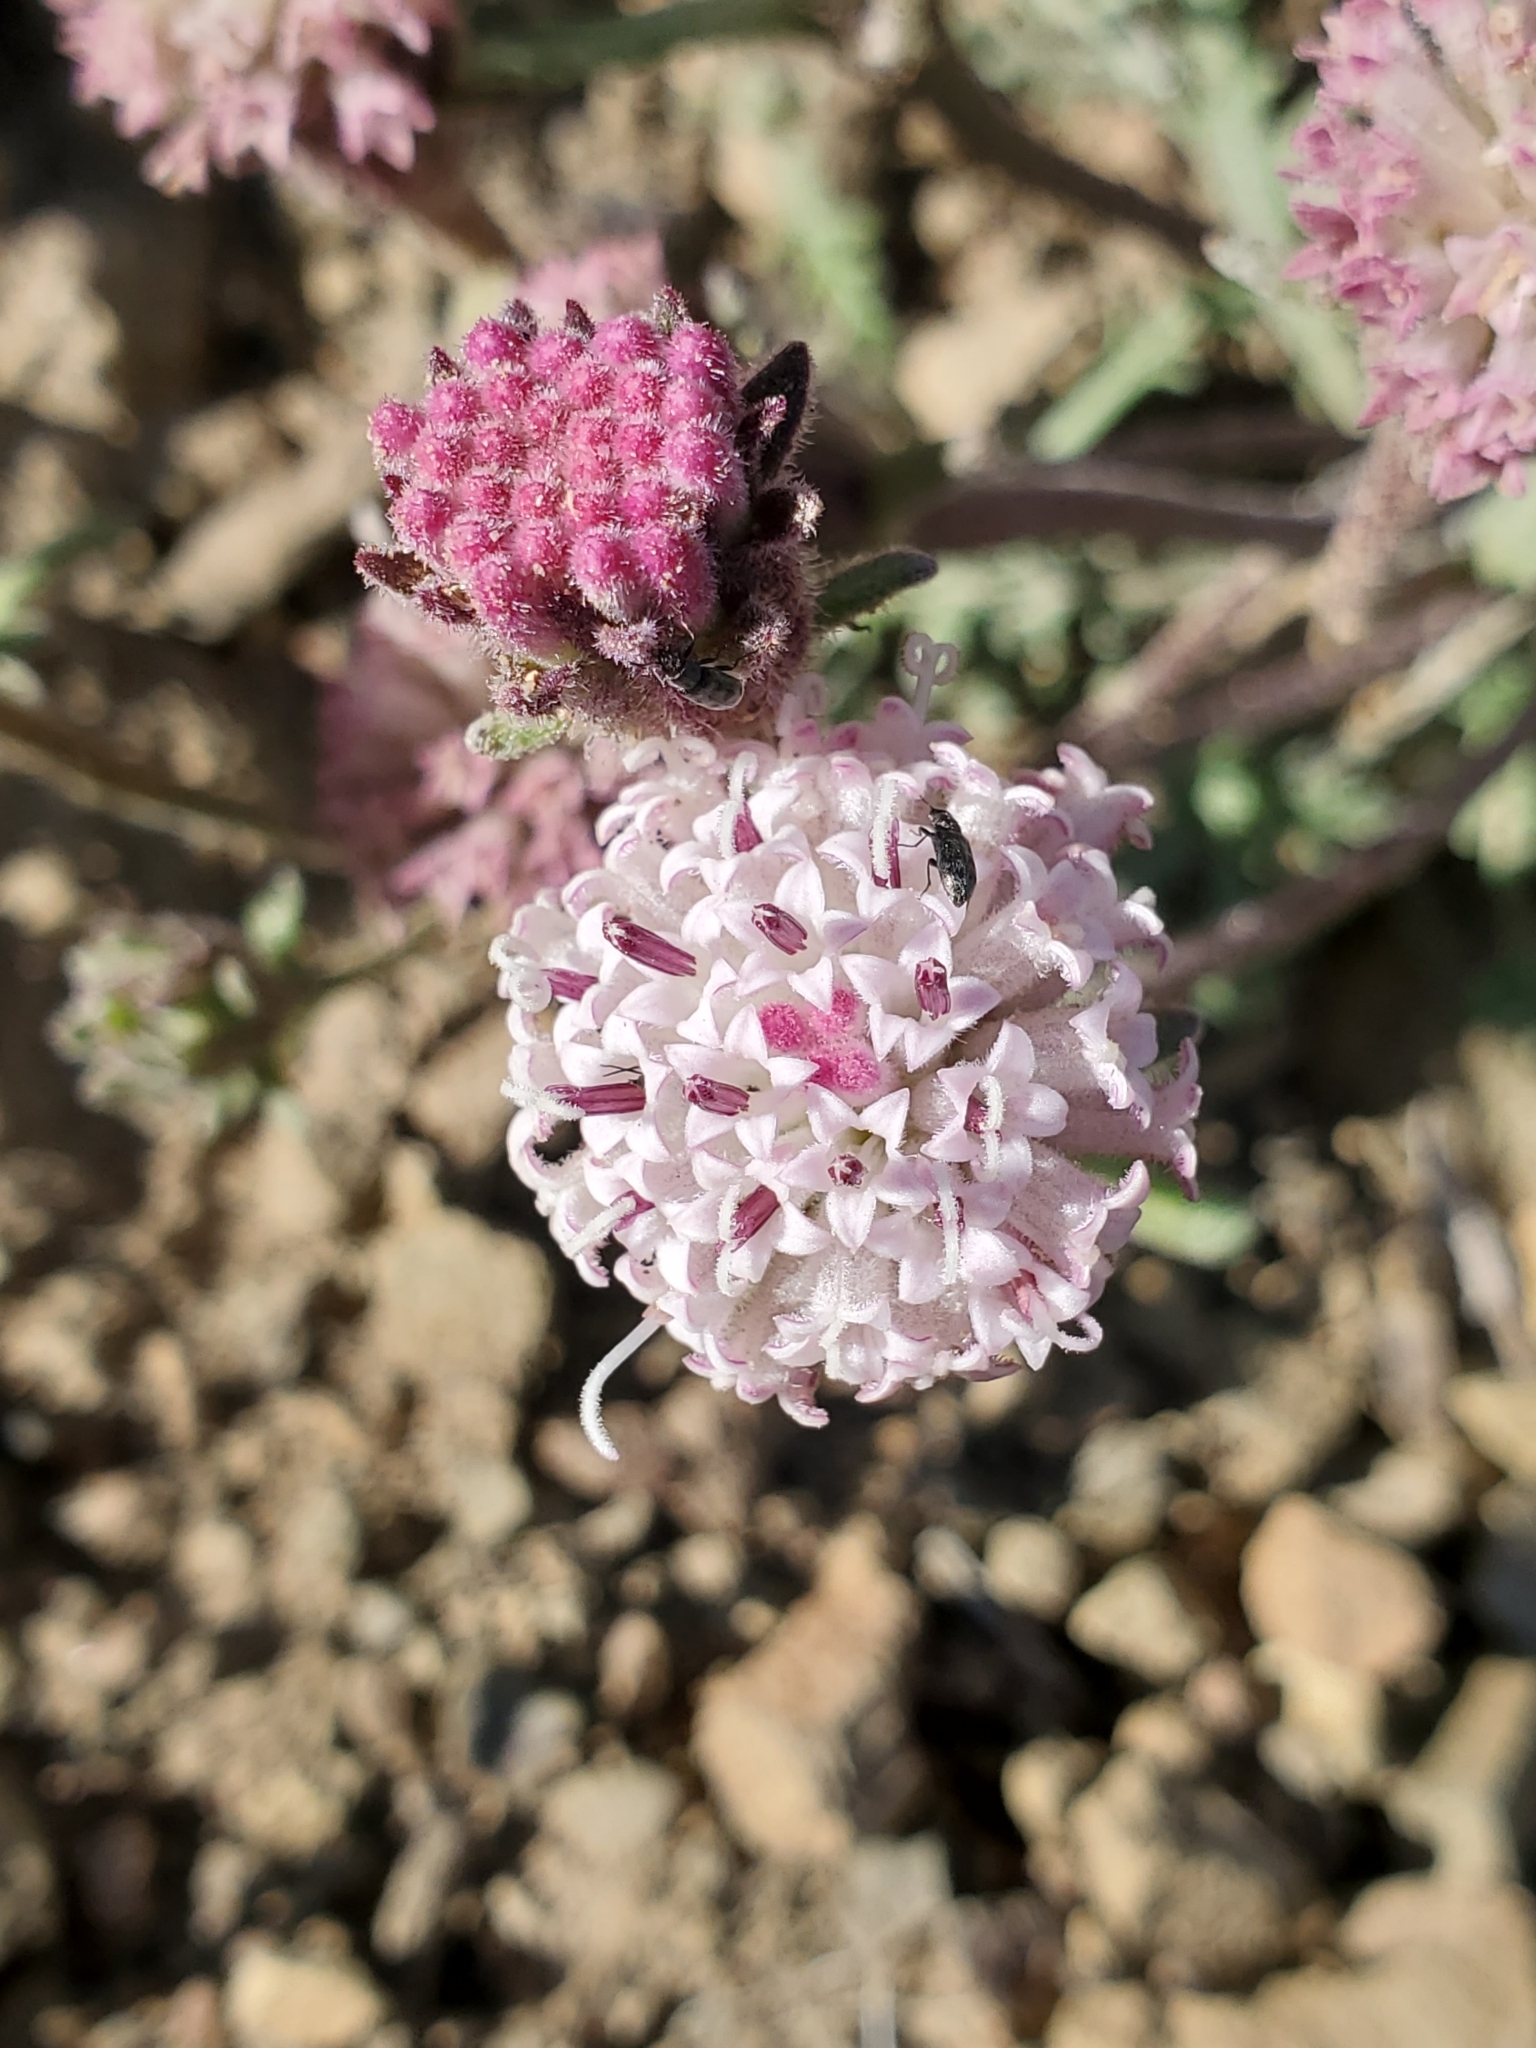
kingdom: Plantae
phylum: Tracheophyta
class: Magnoliopsida
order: Asterales
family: Asteraceae
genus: Chaenactis
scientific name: Chaenactis douglasii
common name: Hoary pincushion
